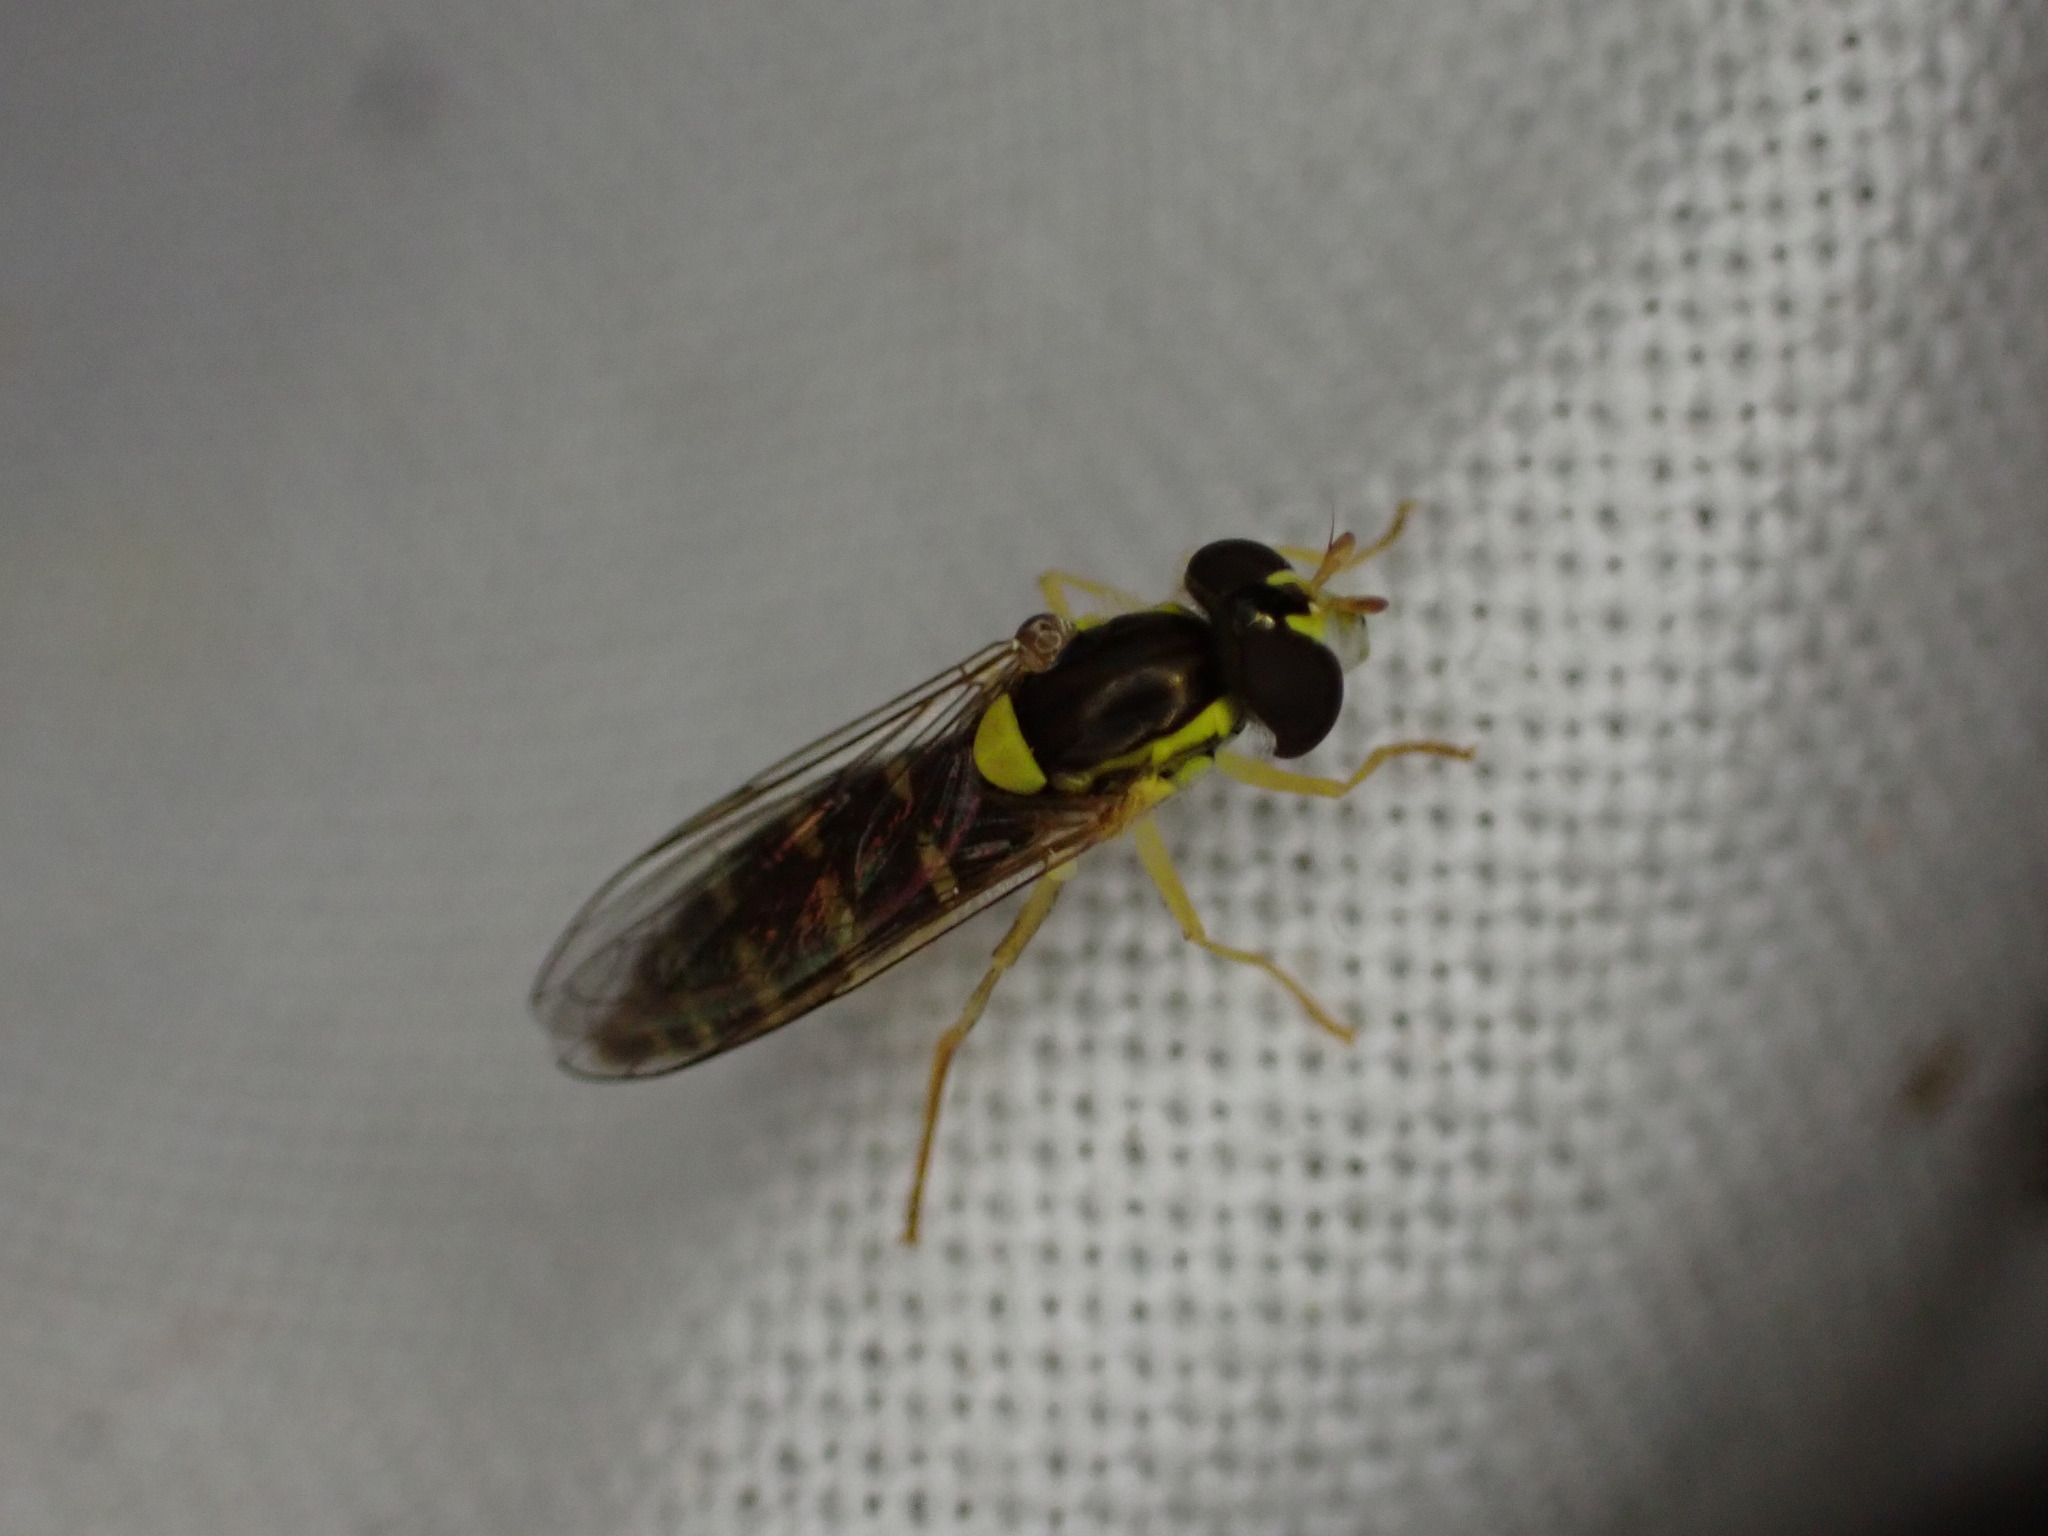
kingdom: Animalia
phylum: Arthropoda
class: Insecta
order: Diptera
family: Syrphidae
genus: Sphaerophoria
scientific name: Sphaerophoria
